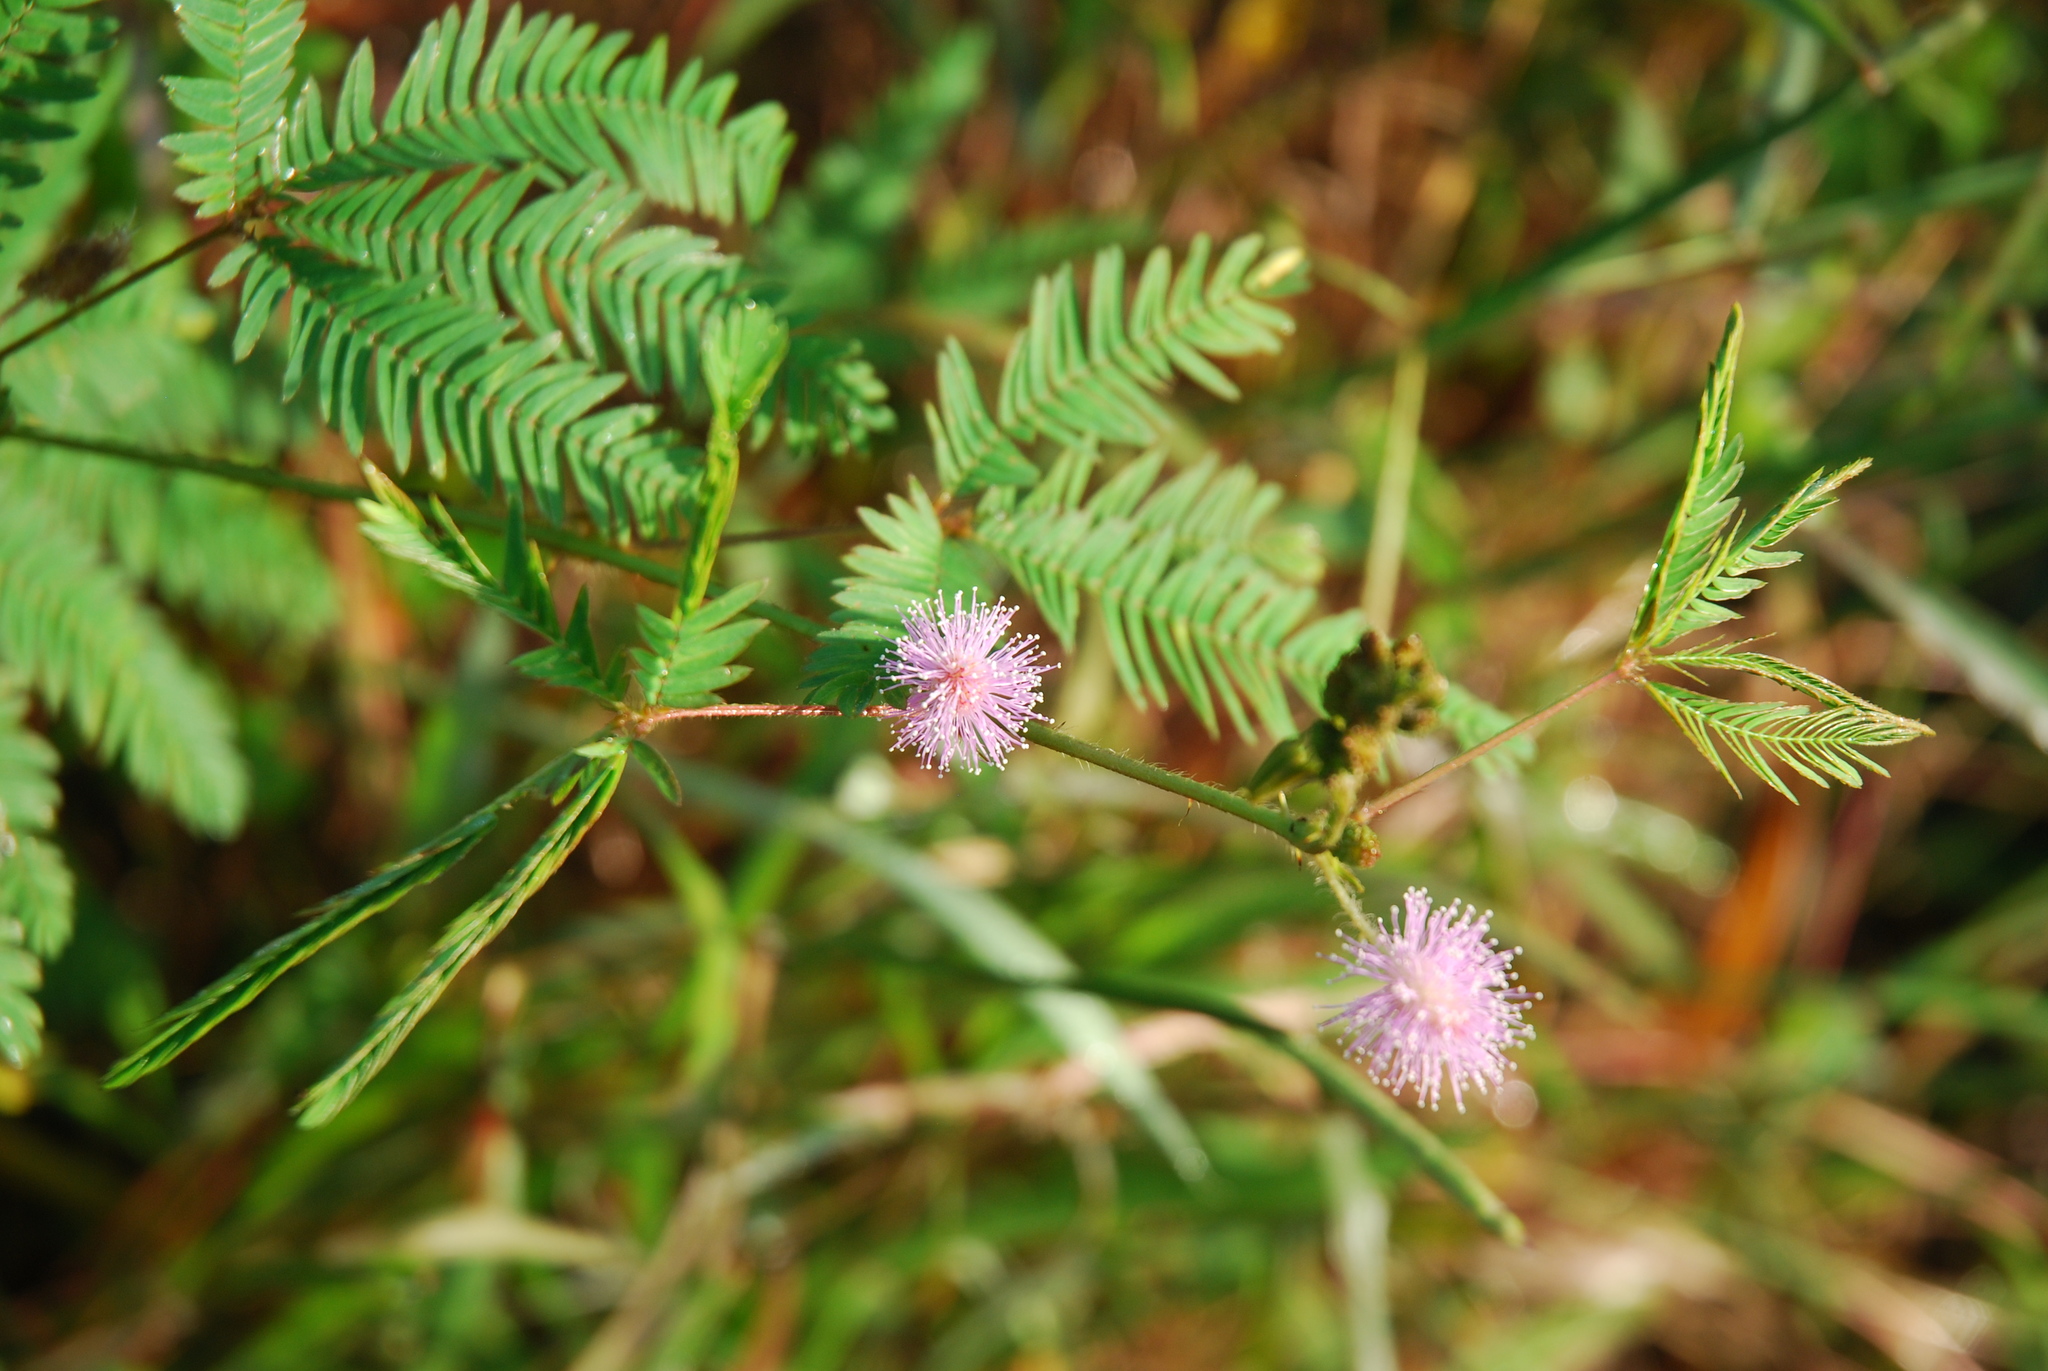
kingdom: Plantae
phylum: Tracheophyta
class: Magnoliopsida
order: Fabales
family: Fabaceae
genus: Mimosa
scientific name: Mimosa pudica
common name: Sensitive plant
